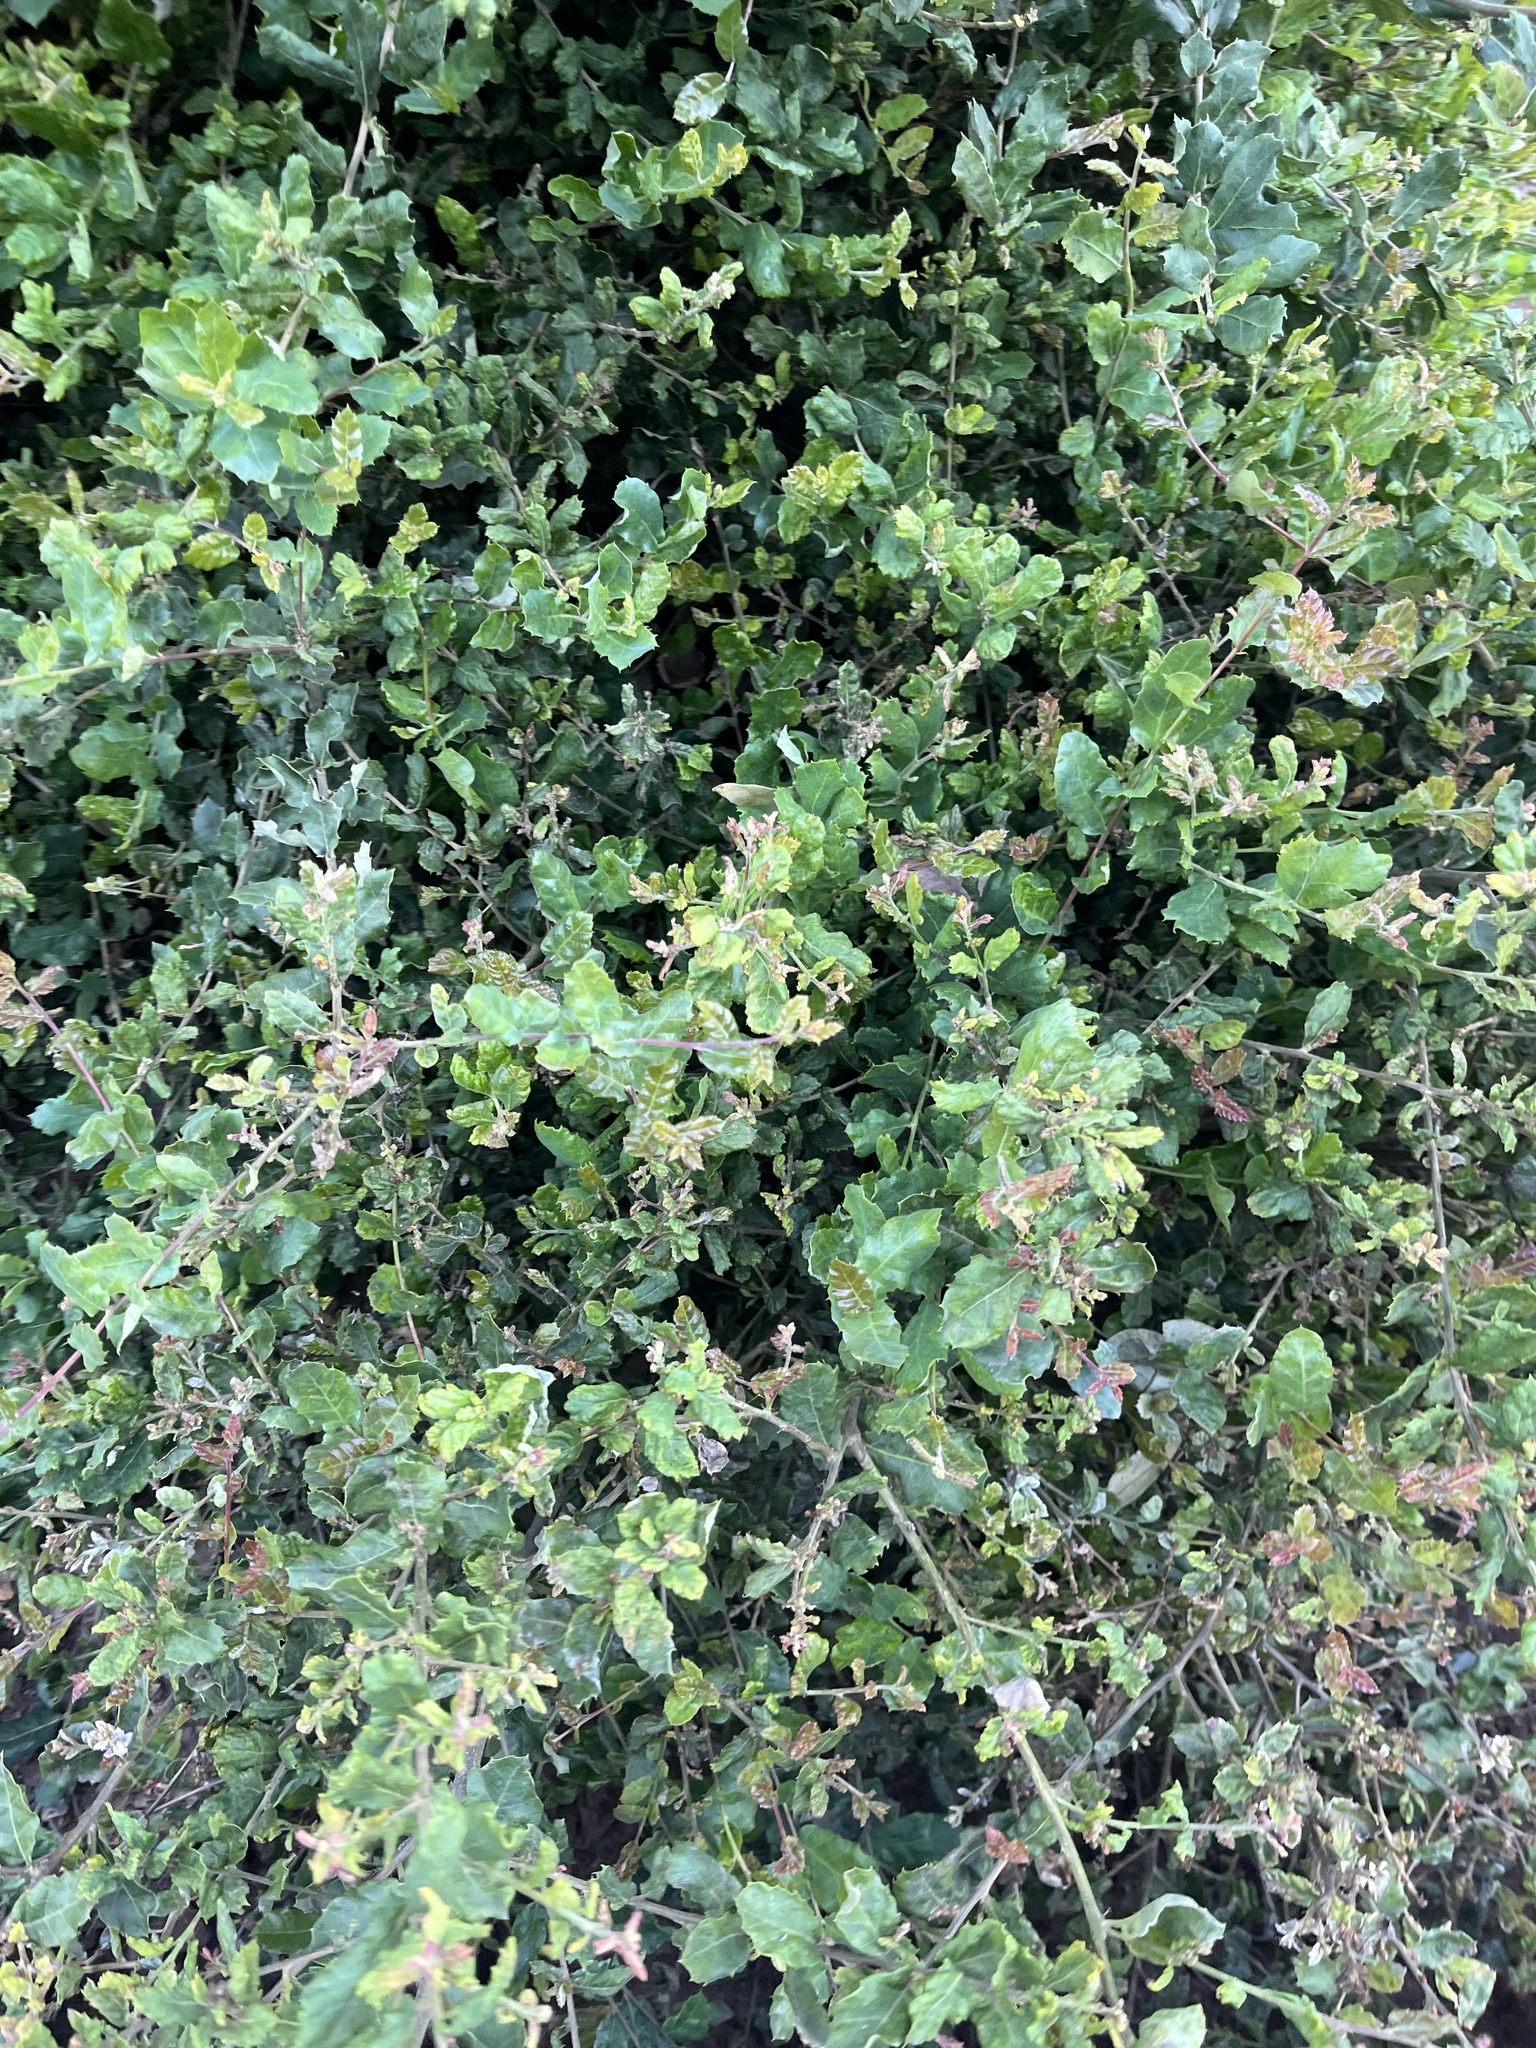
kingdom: Plantae
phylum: Tracheophyta
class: Magnoliopsida
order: Fagales
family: Fagaceae
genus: Quercus
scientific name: Quercus agrifolia
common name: California live oak
